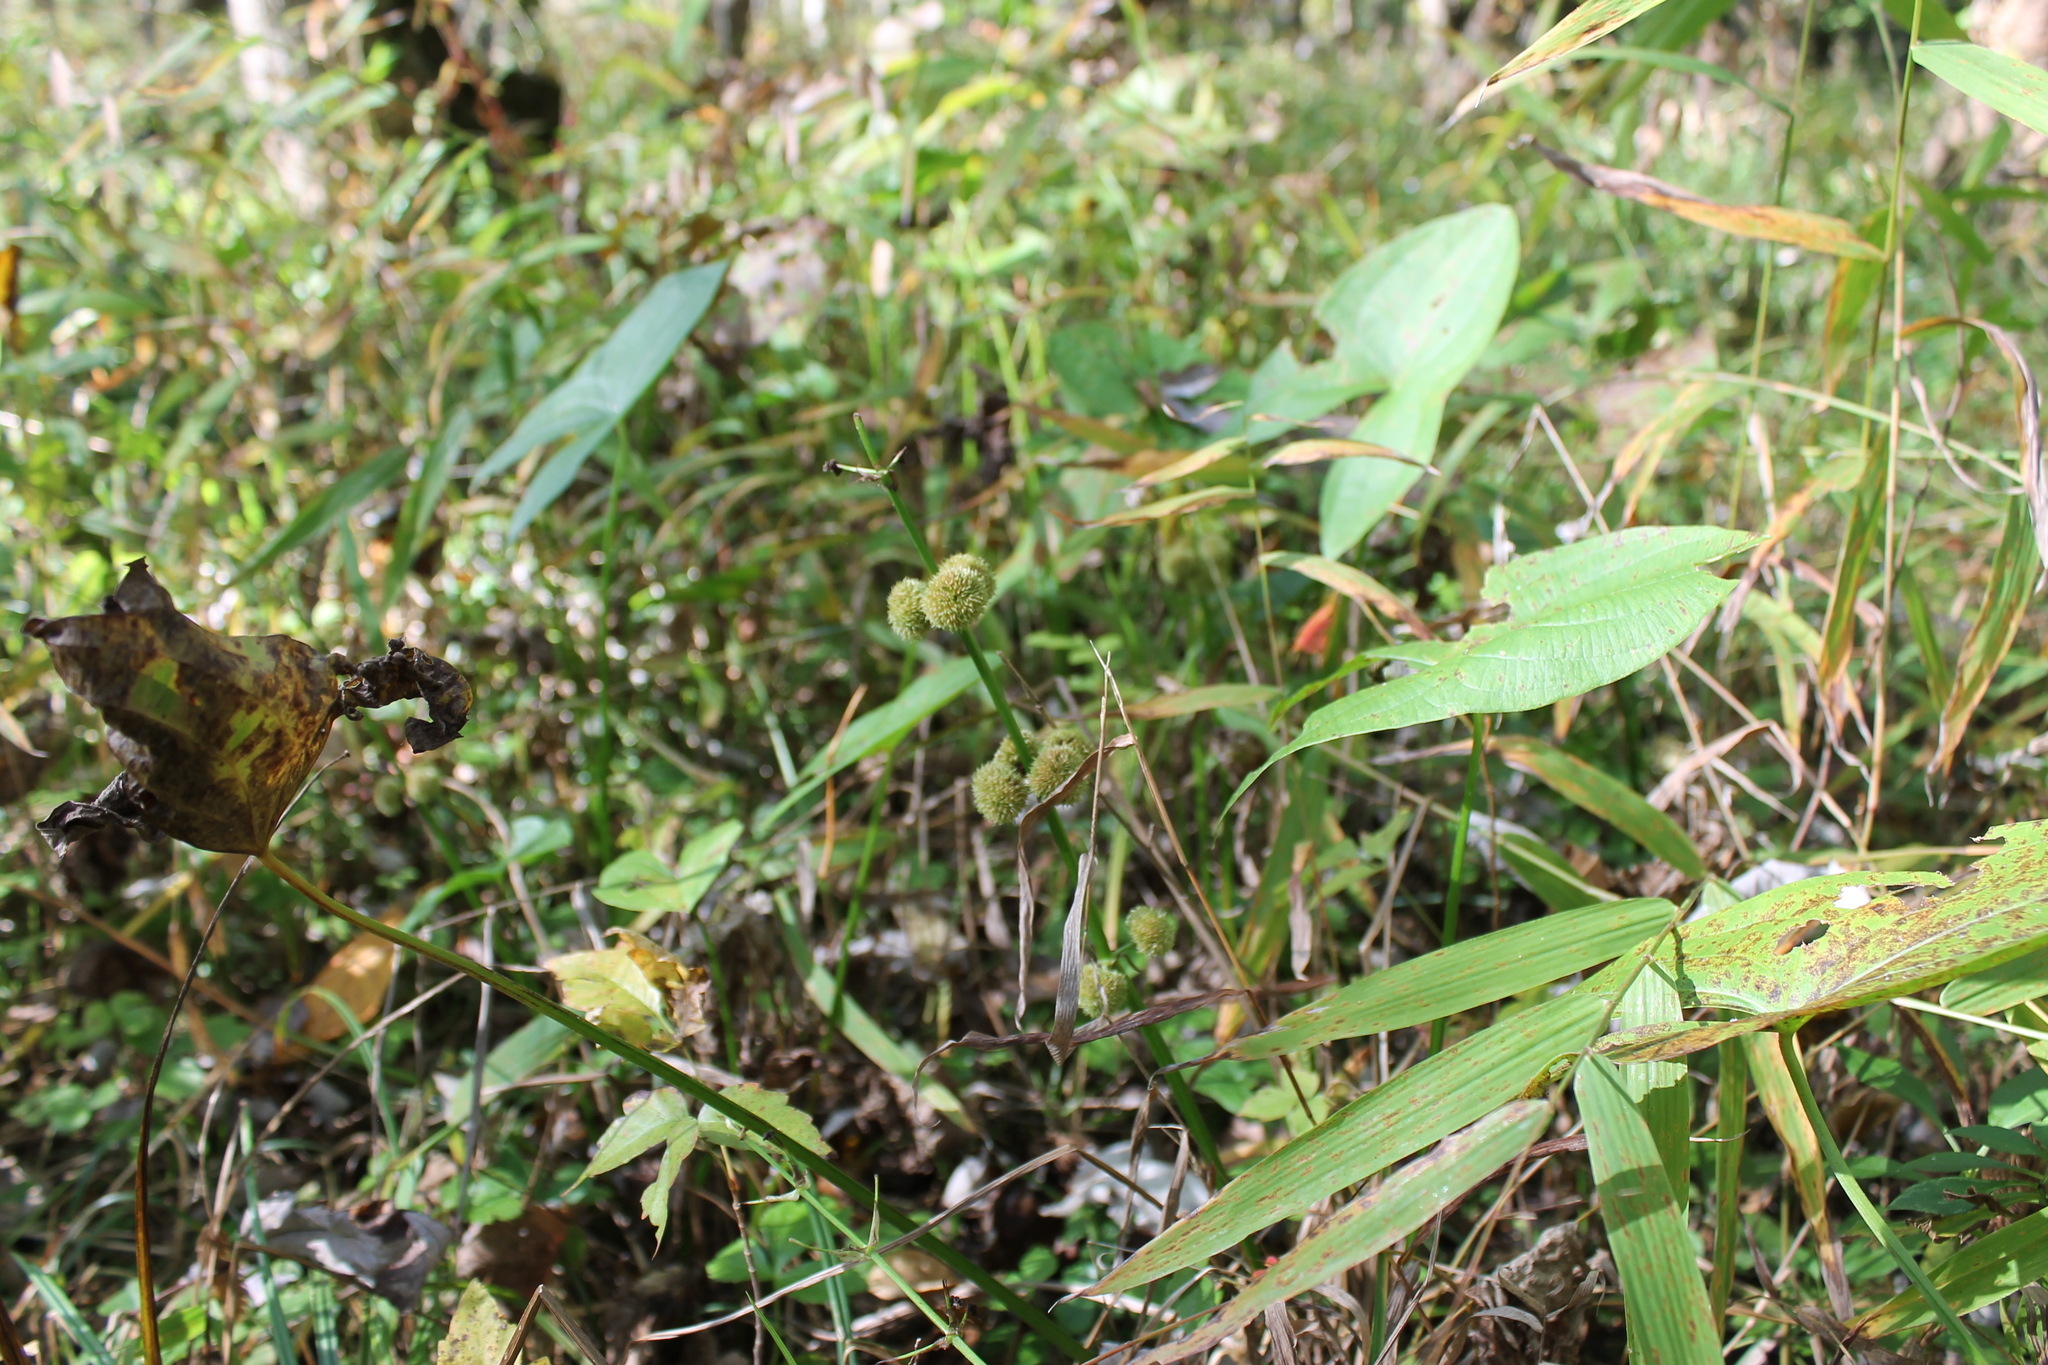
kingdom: Plantae
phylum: Tracheophyta
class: Liliopsida
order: Alismatales
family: Alismataceae
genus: Sagittaria
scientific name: Sagittaria australis
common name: Appalachian arrowhead
